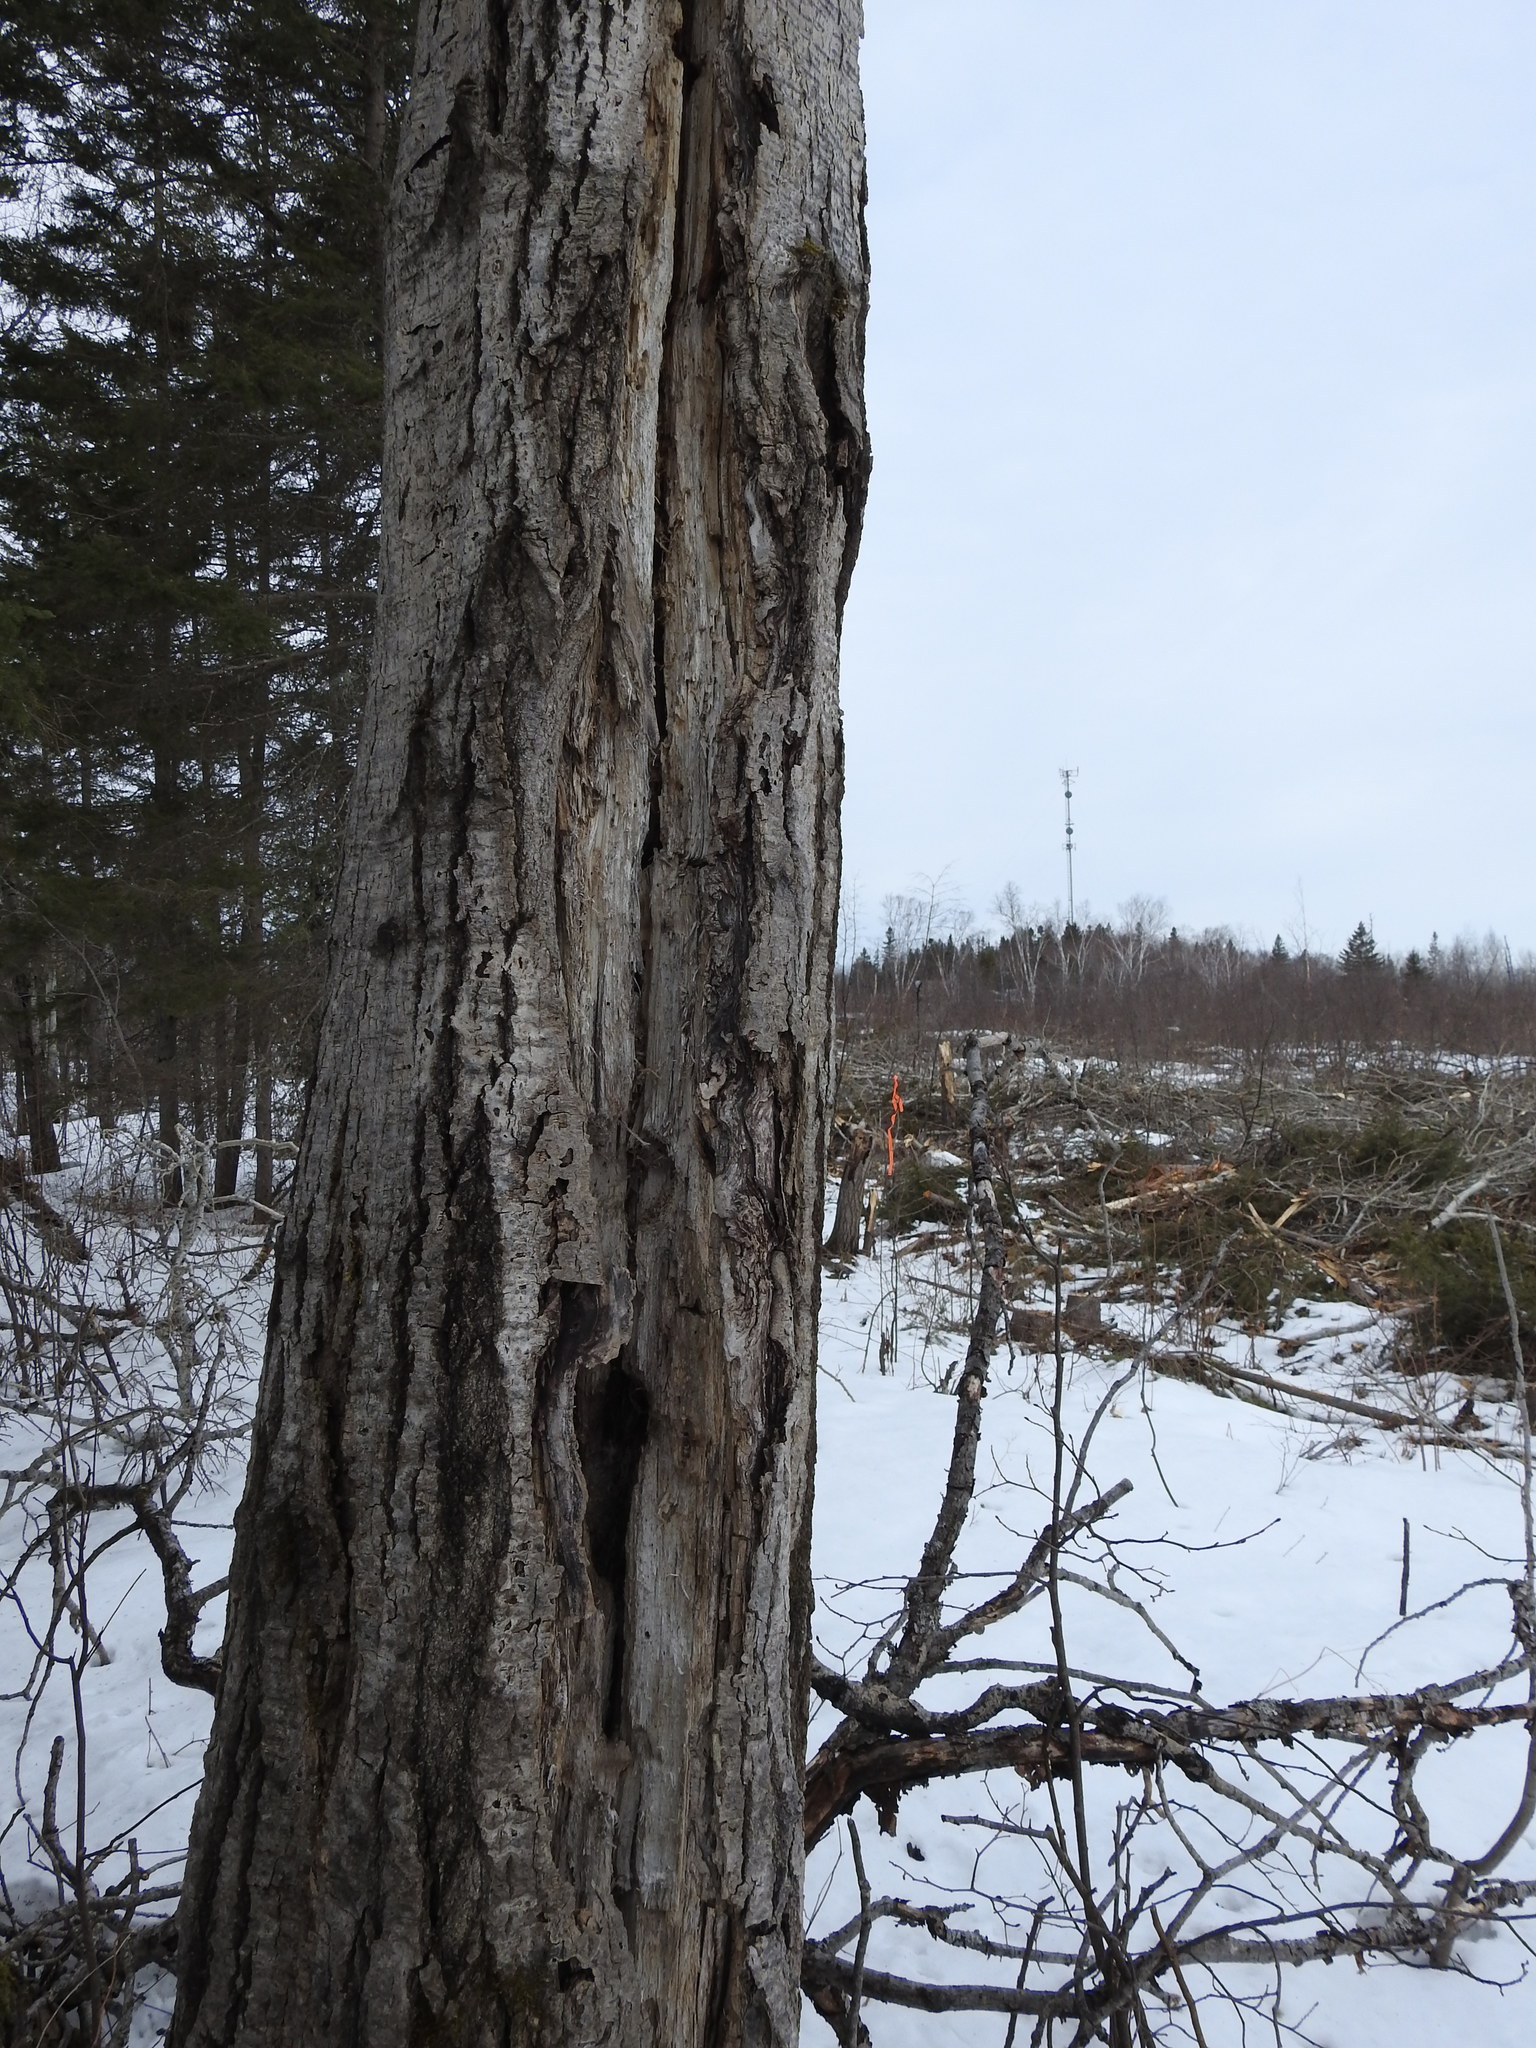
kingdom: Plantae
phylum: Tracheophyta
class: Magnoliopsida
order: Malpighiales
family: Salicaceae
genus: Populus
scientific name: Populus tremuloides
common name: Quaking aspen
